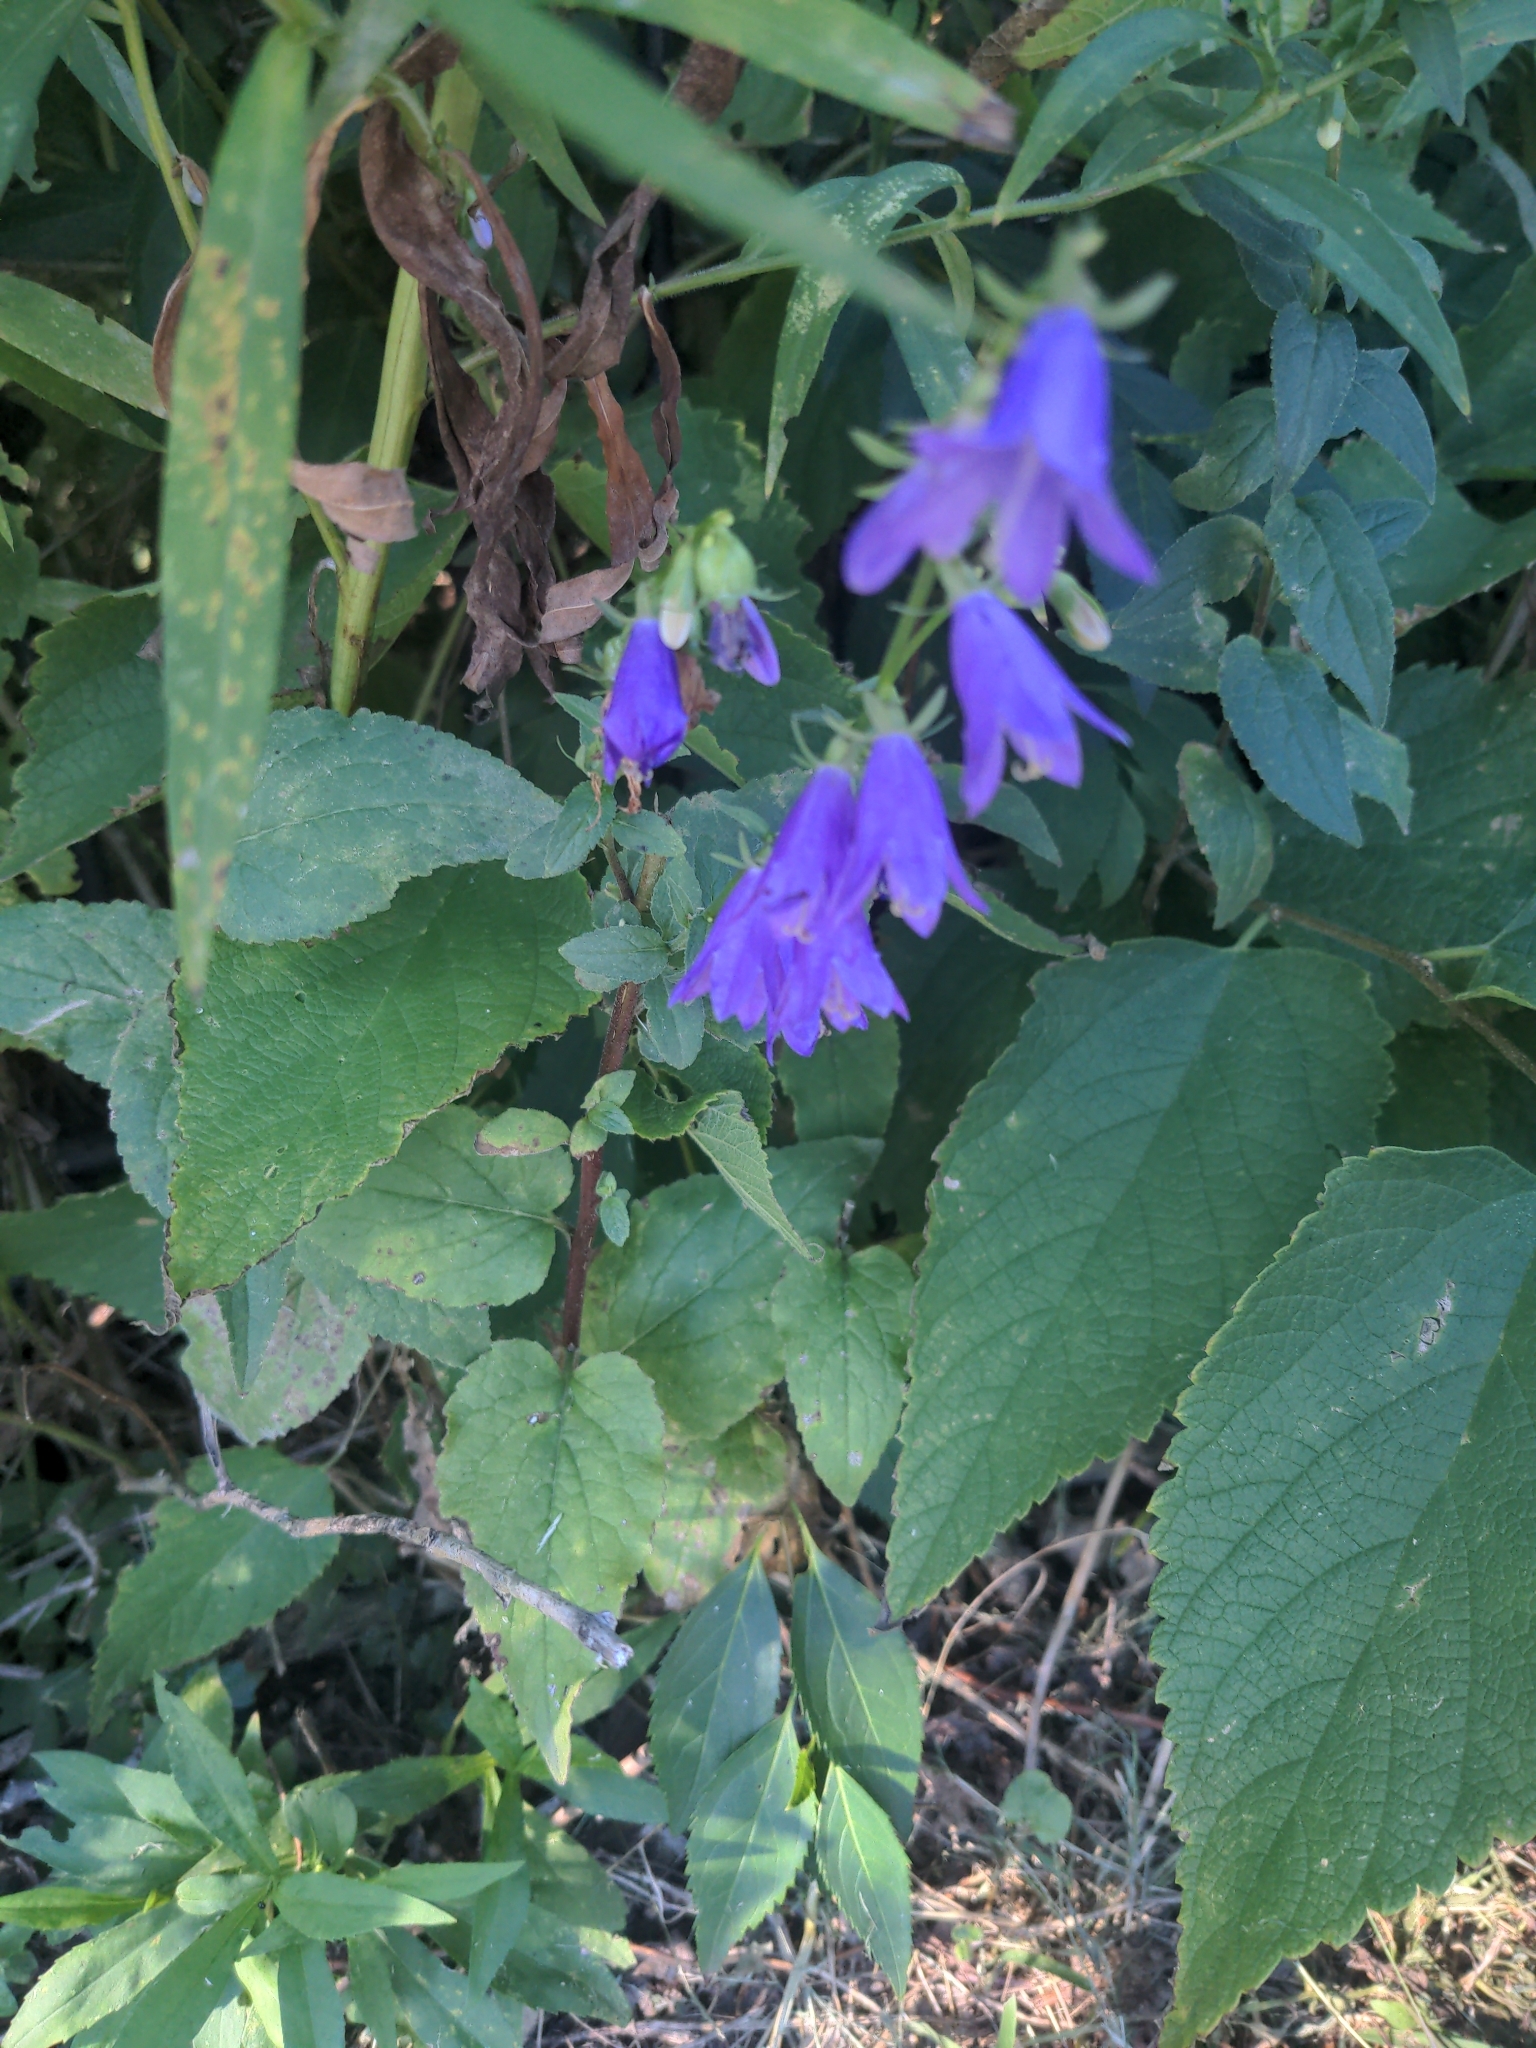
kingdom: Plantae
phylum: Tracheophyta
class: Magnoliopsida
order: Asterales
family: Campanulaceae
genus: Campanula
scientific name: Campanula rapunculoides
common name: Creeping bellflower
